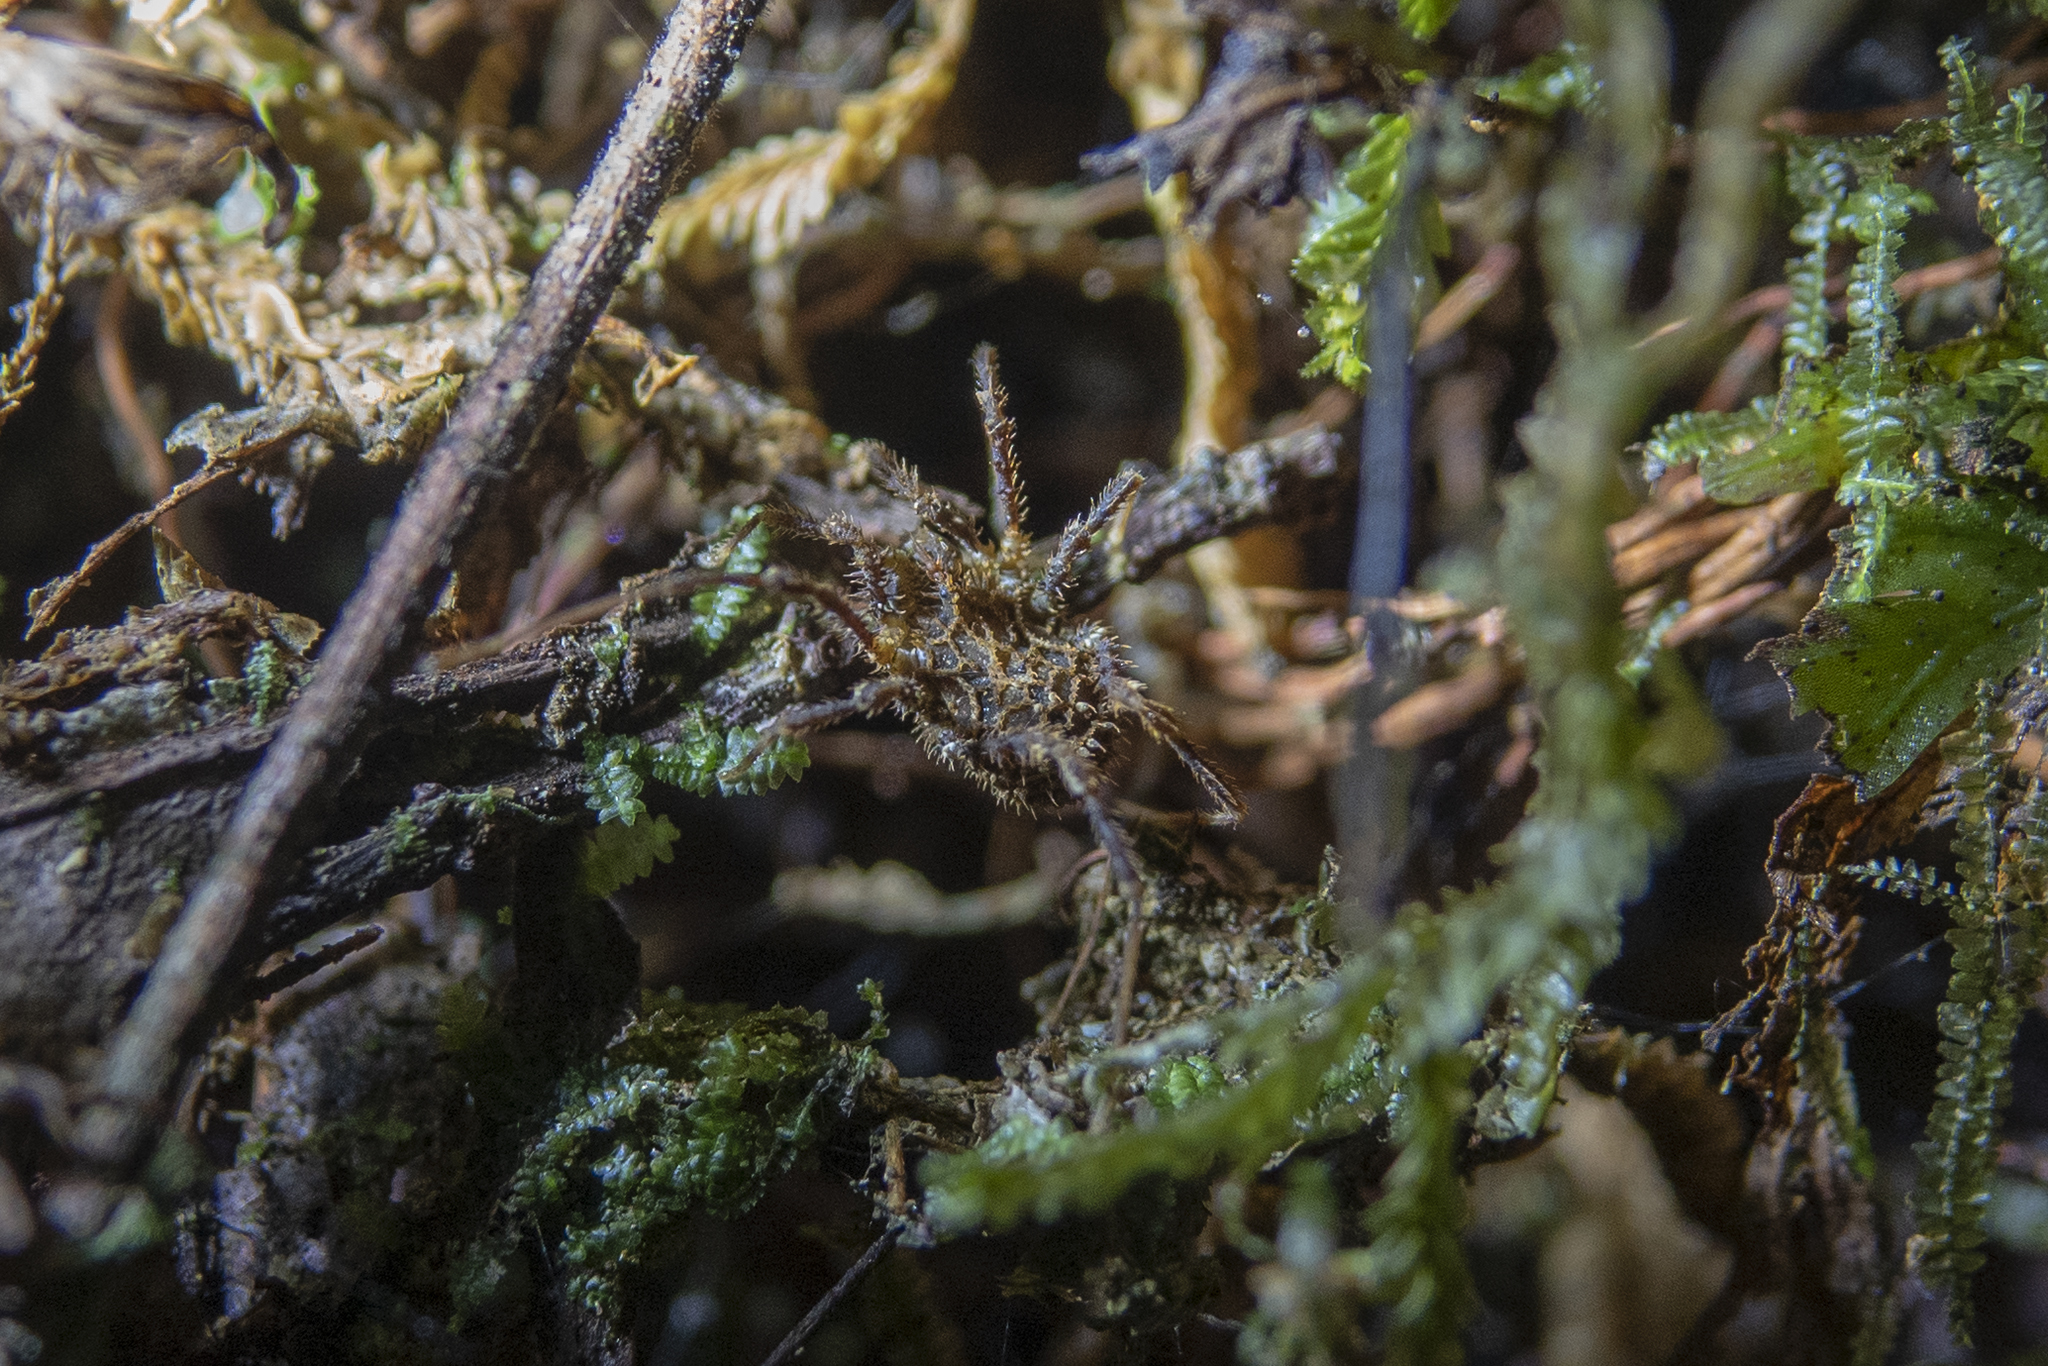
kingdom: Animalia
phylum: Arthropoda
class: Arachnida
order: Opiliones
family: Triaenonychidae
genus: Pristobunus
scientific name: Pristobunus acuminatus
